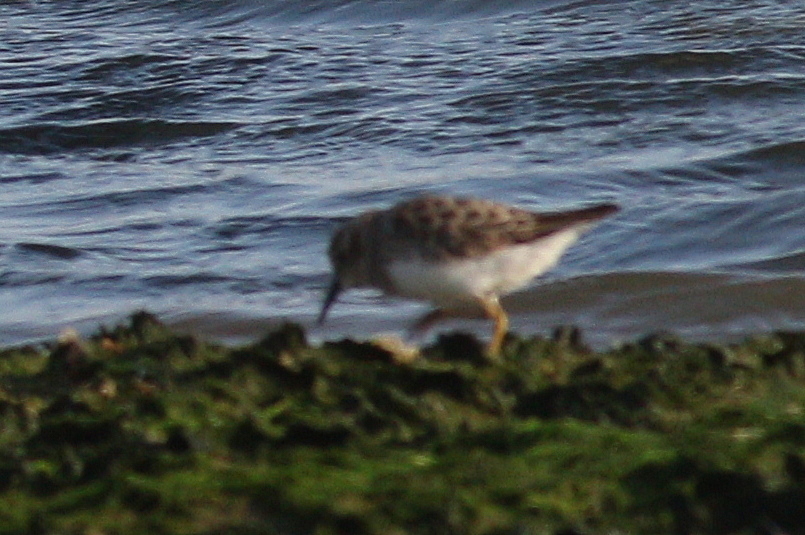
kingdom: Animalia
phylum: Chordata
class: Aves
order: Charadriiformes
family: Scolopacidae
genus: Calidris
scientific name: Calidris minutilla
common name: Least sandpiper
